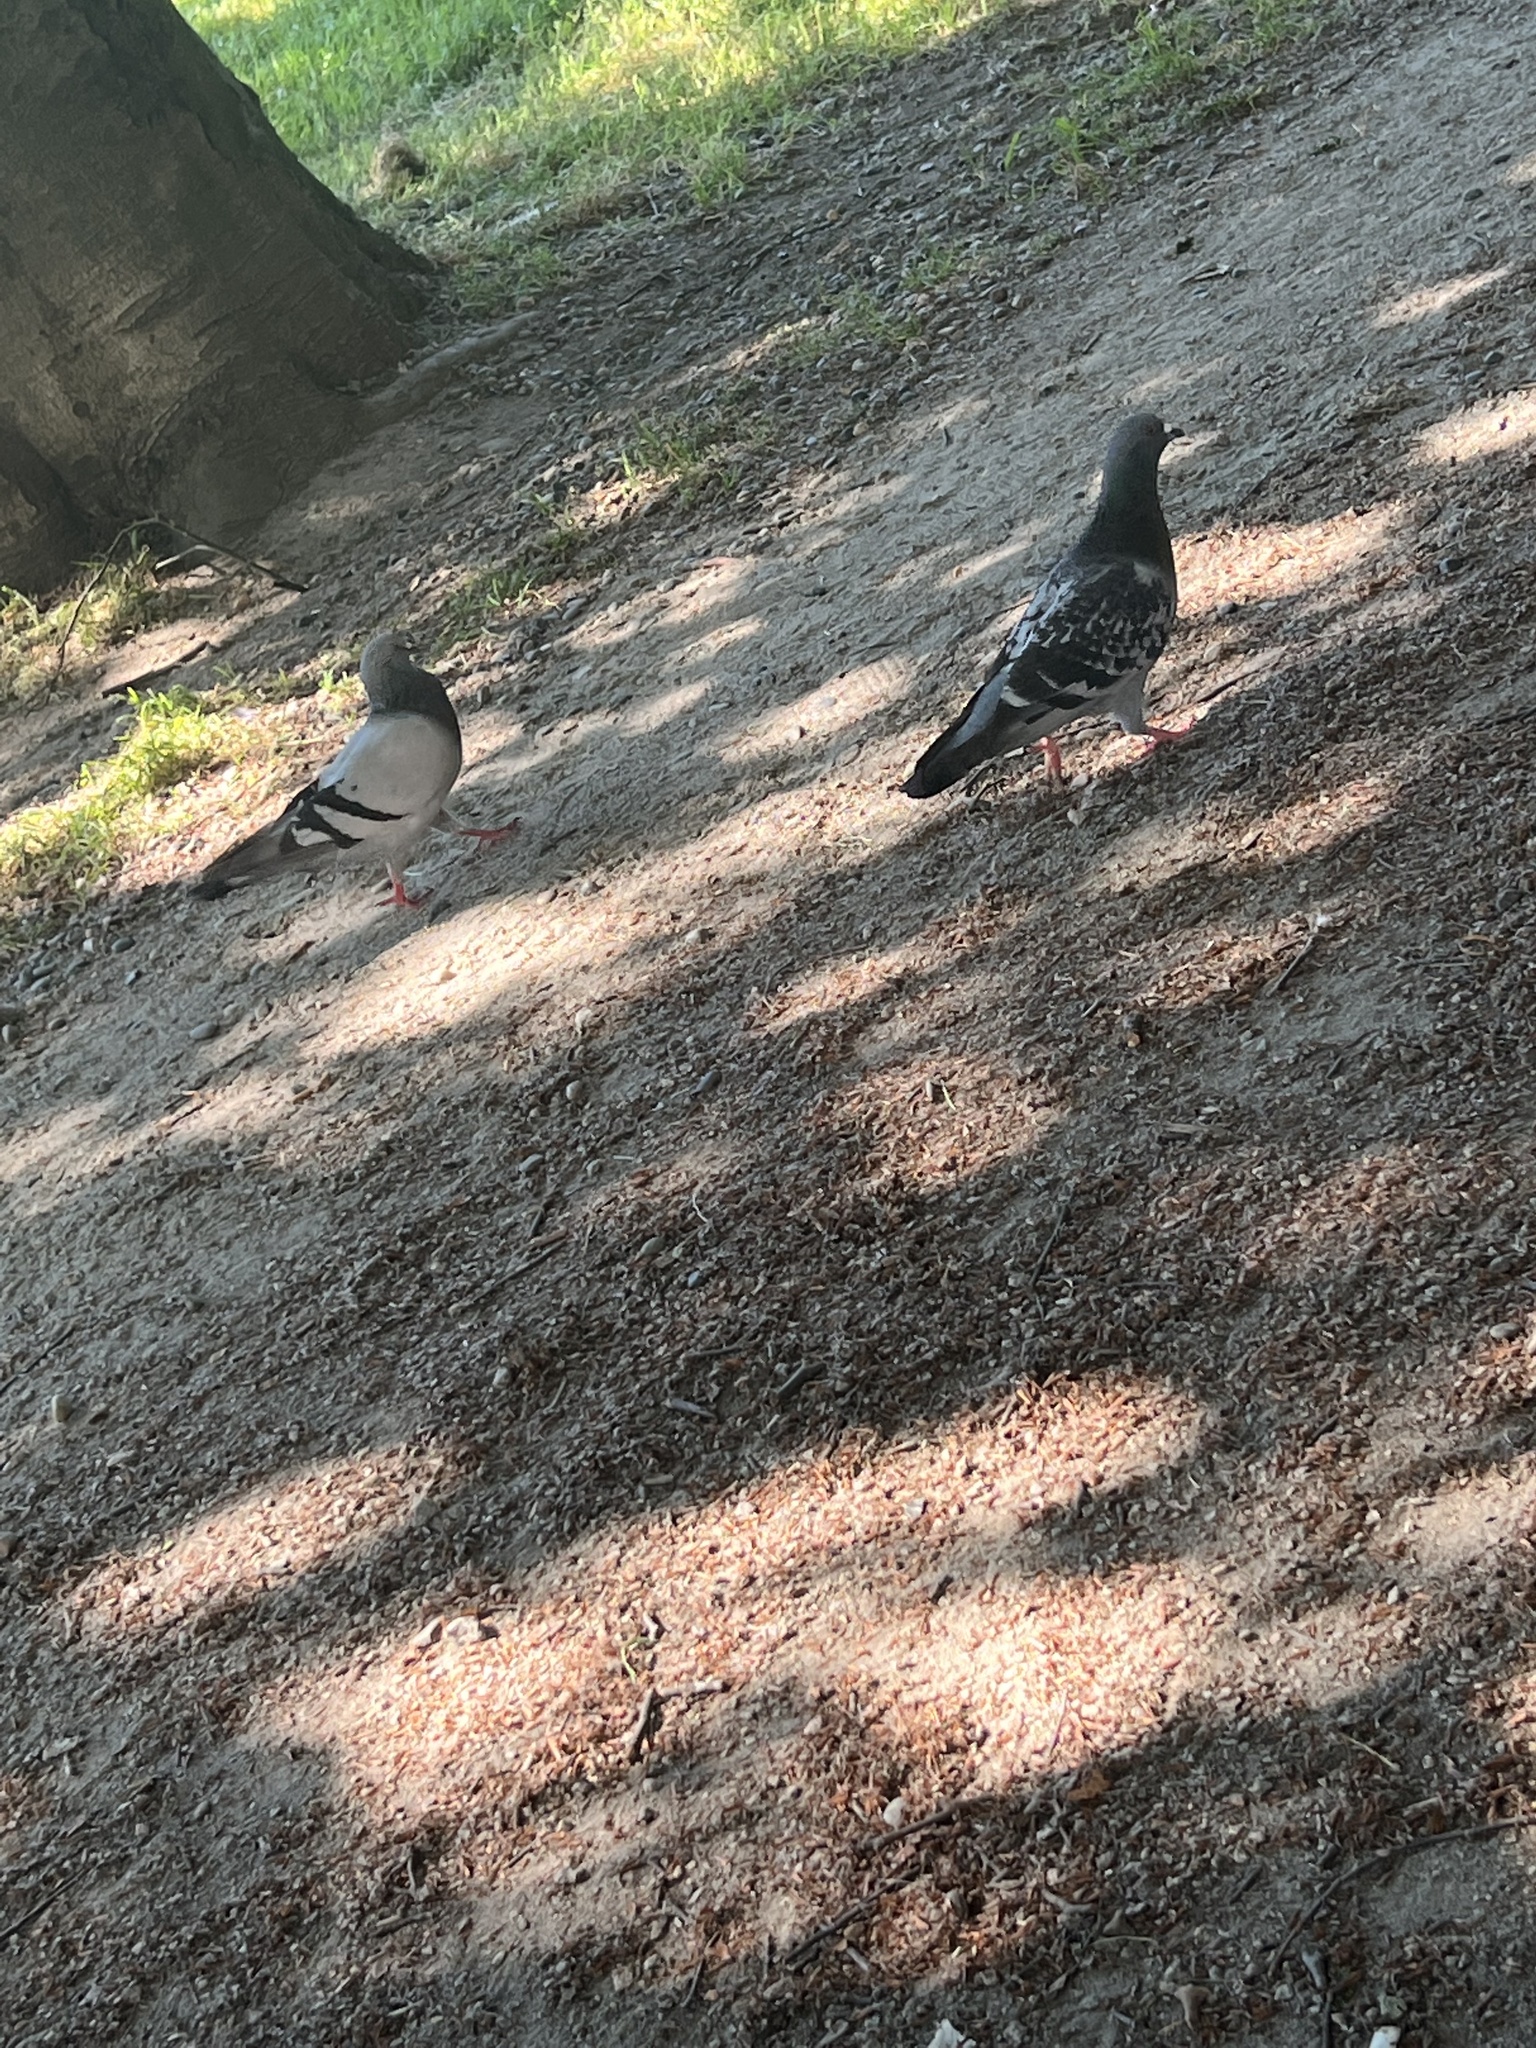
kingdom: Animalia
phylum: Chordata
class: Aves
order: Columbiformes
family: Columbidae
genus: Columba
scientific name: Columba livia
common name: Rock pigeon
